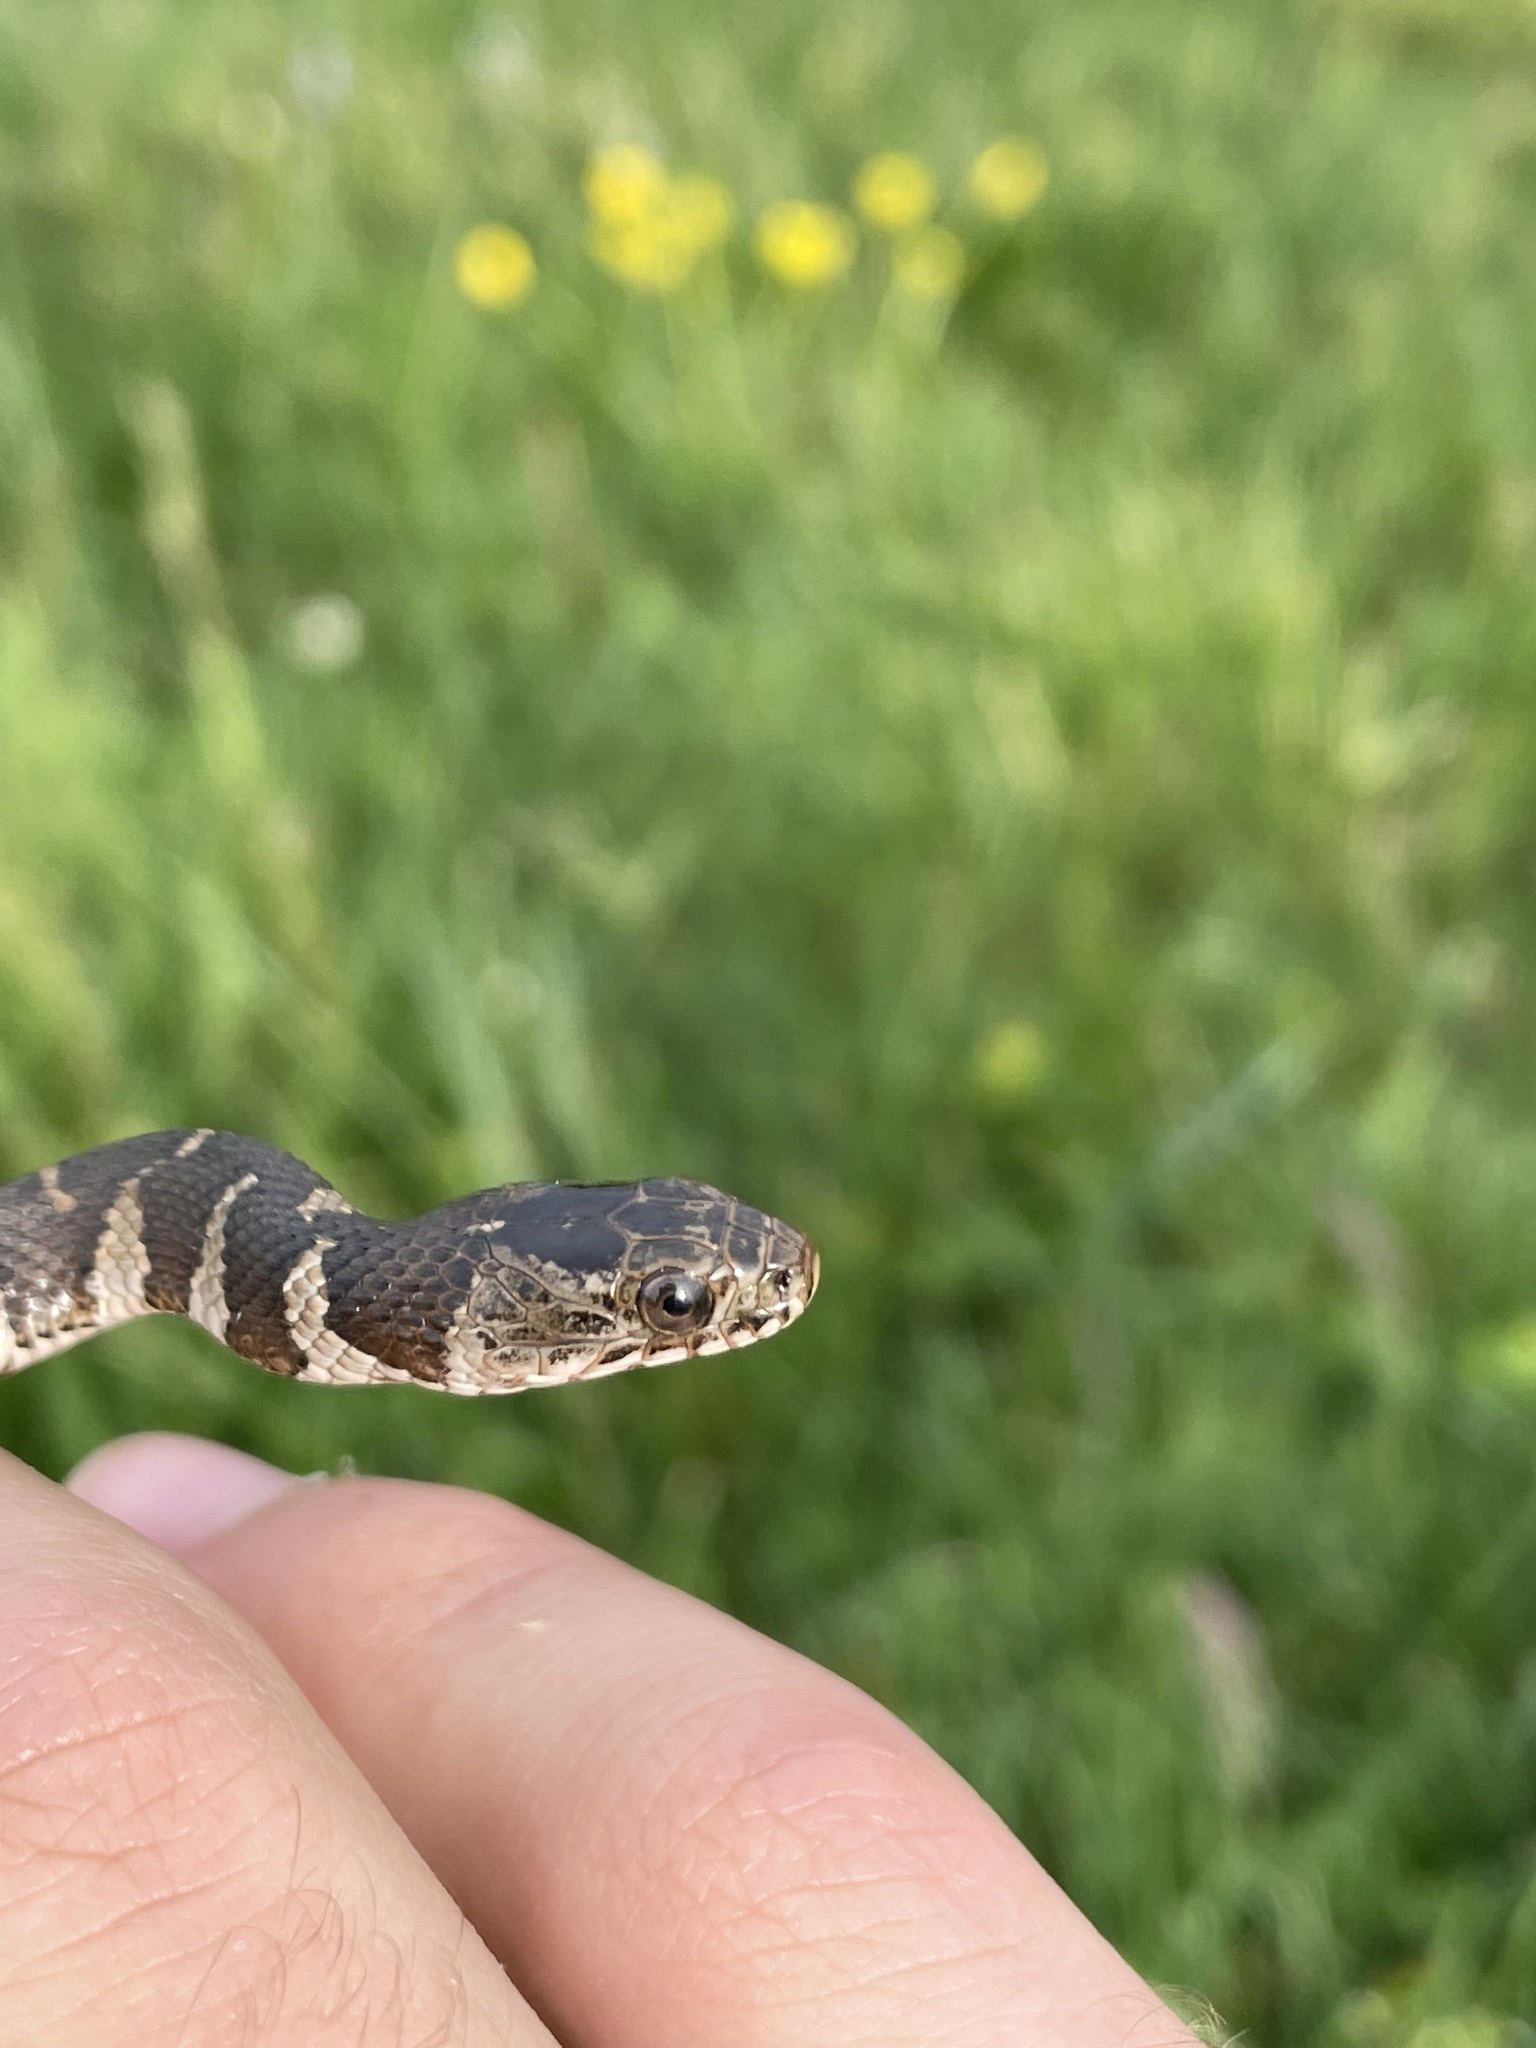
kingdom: Animalia
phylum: Chordata
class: Squamata
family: Colubridae
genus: Nerodia
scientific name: Nerodia sipedon
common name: Northern water snake
